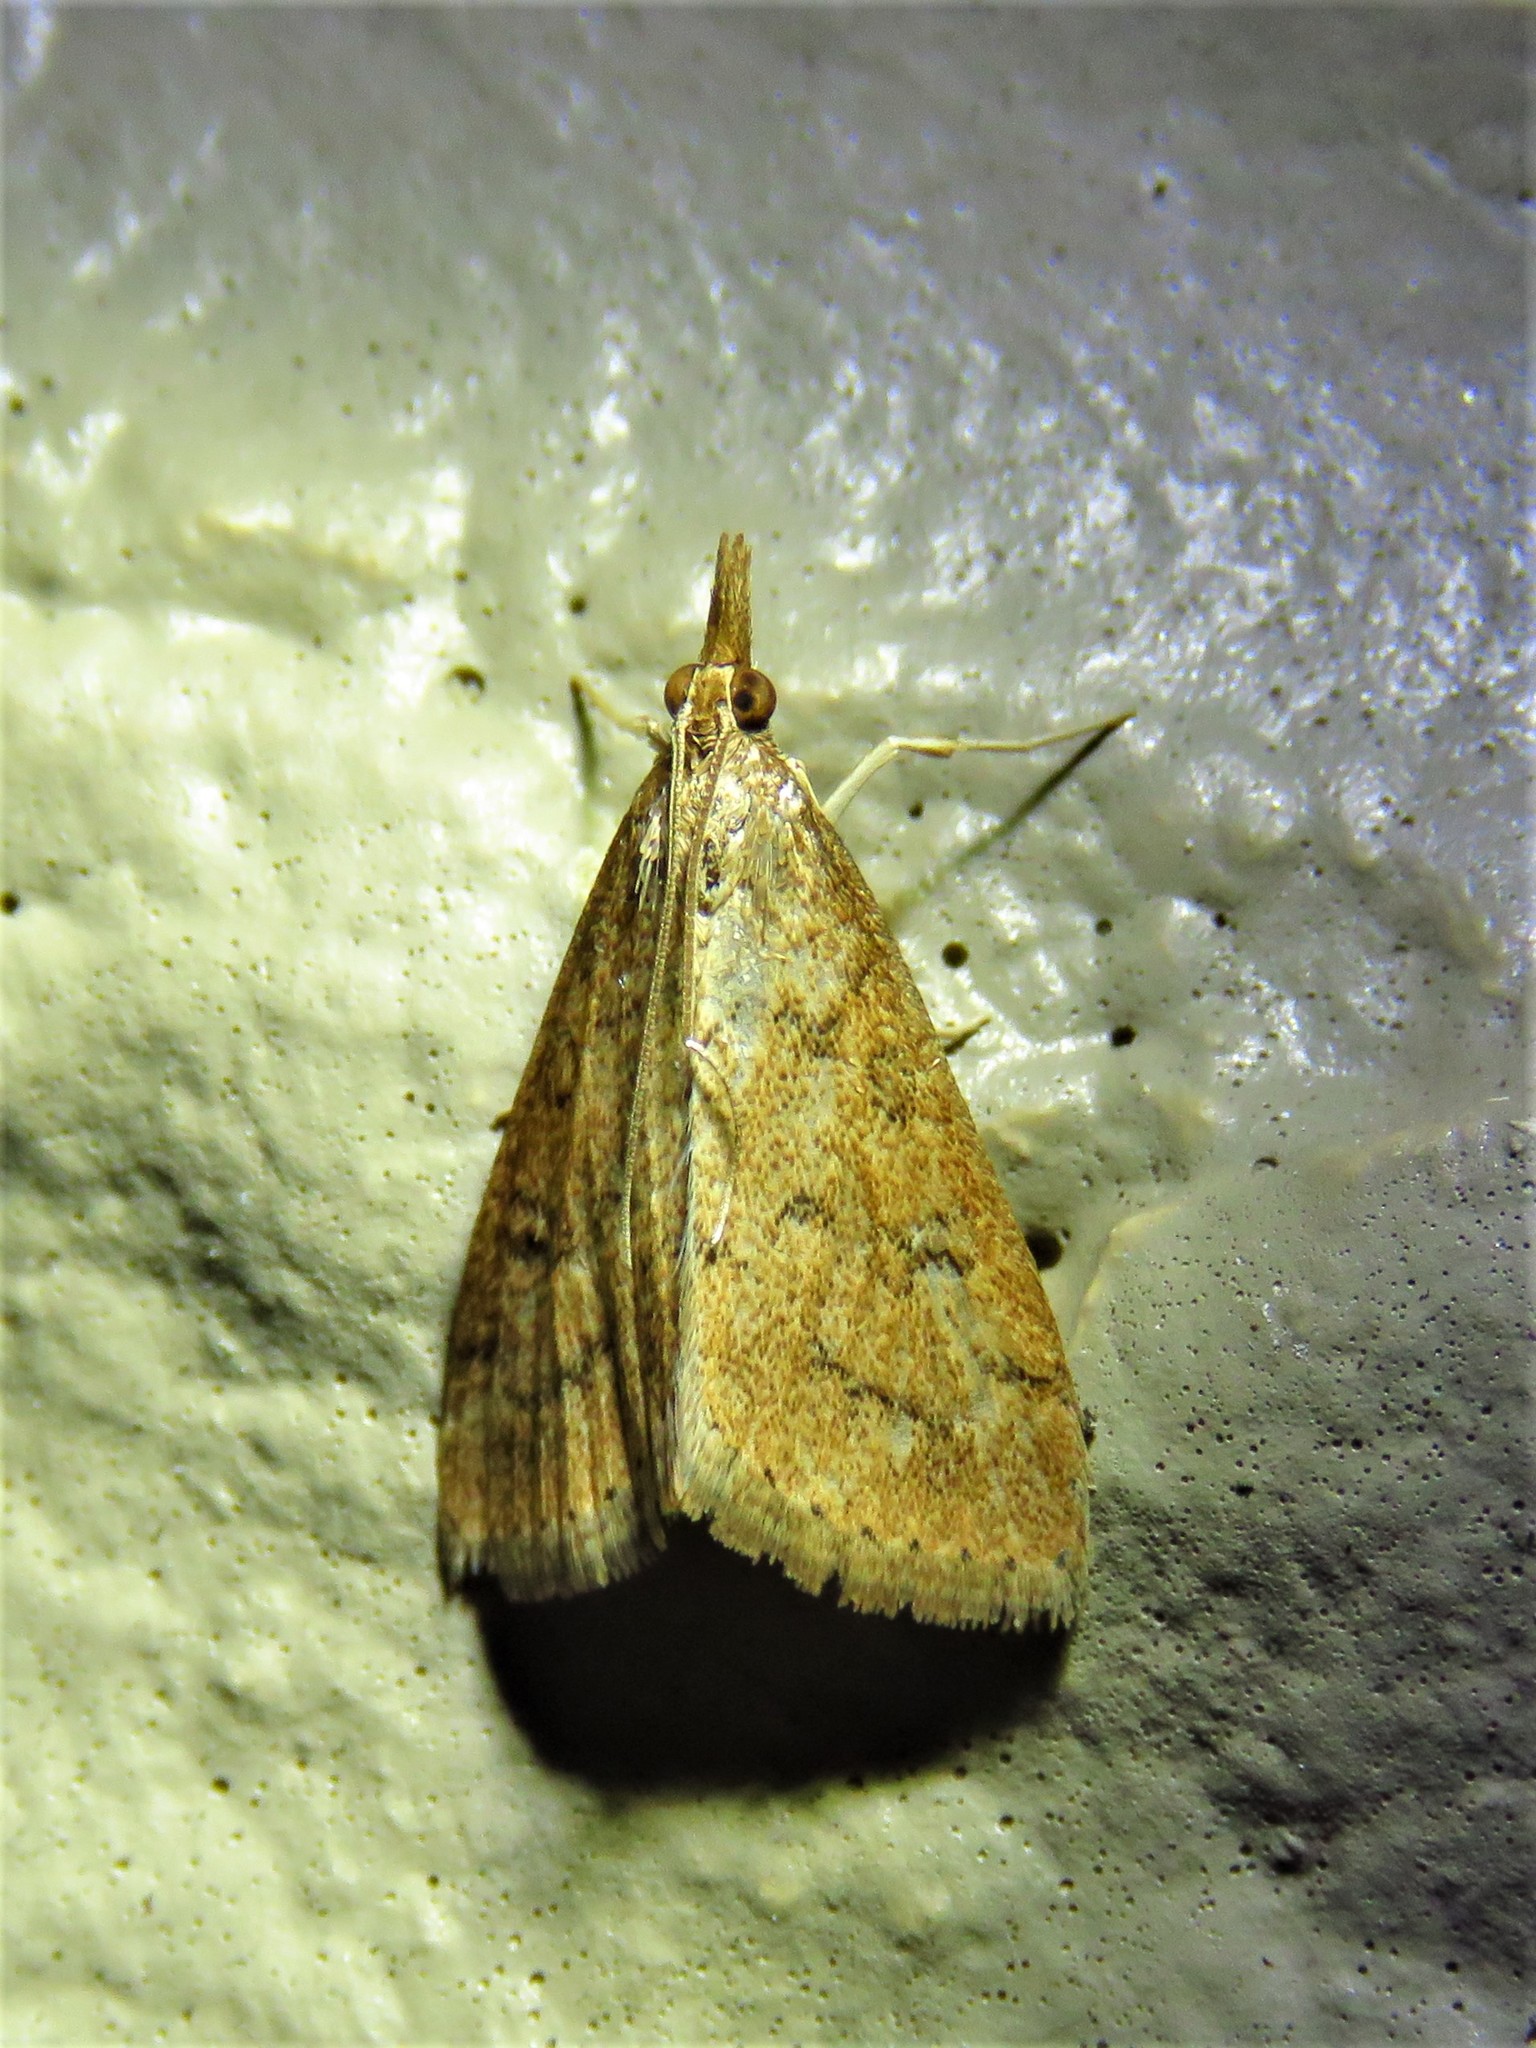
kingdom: Animalia
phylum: Arthropoda
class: Insecta
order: Lepidoptera
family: Crambidae
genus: Udea
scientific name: Udea rubigalis
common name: Celery leaftier moth
